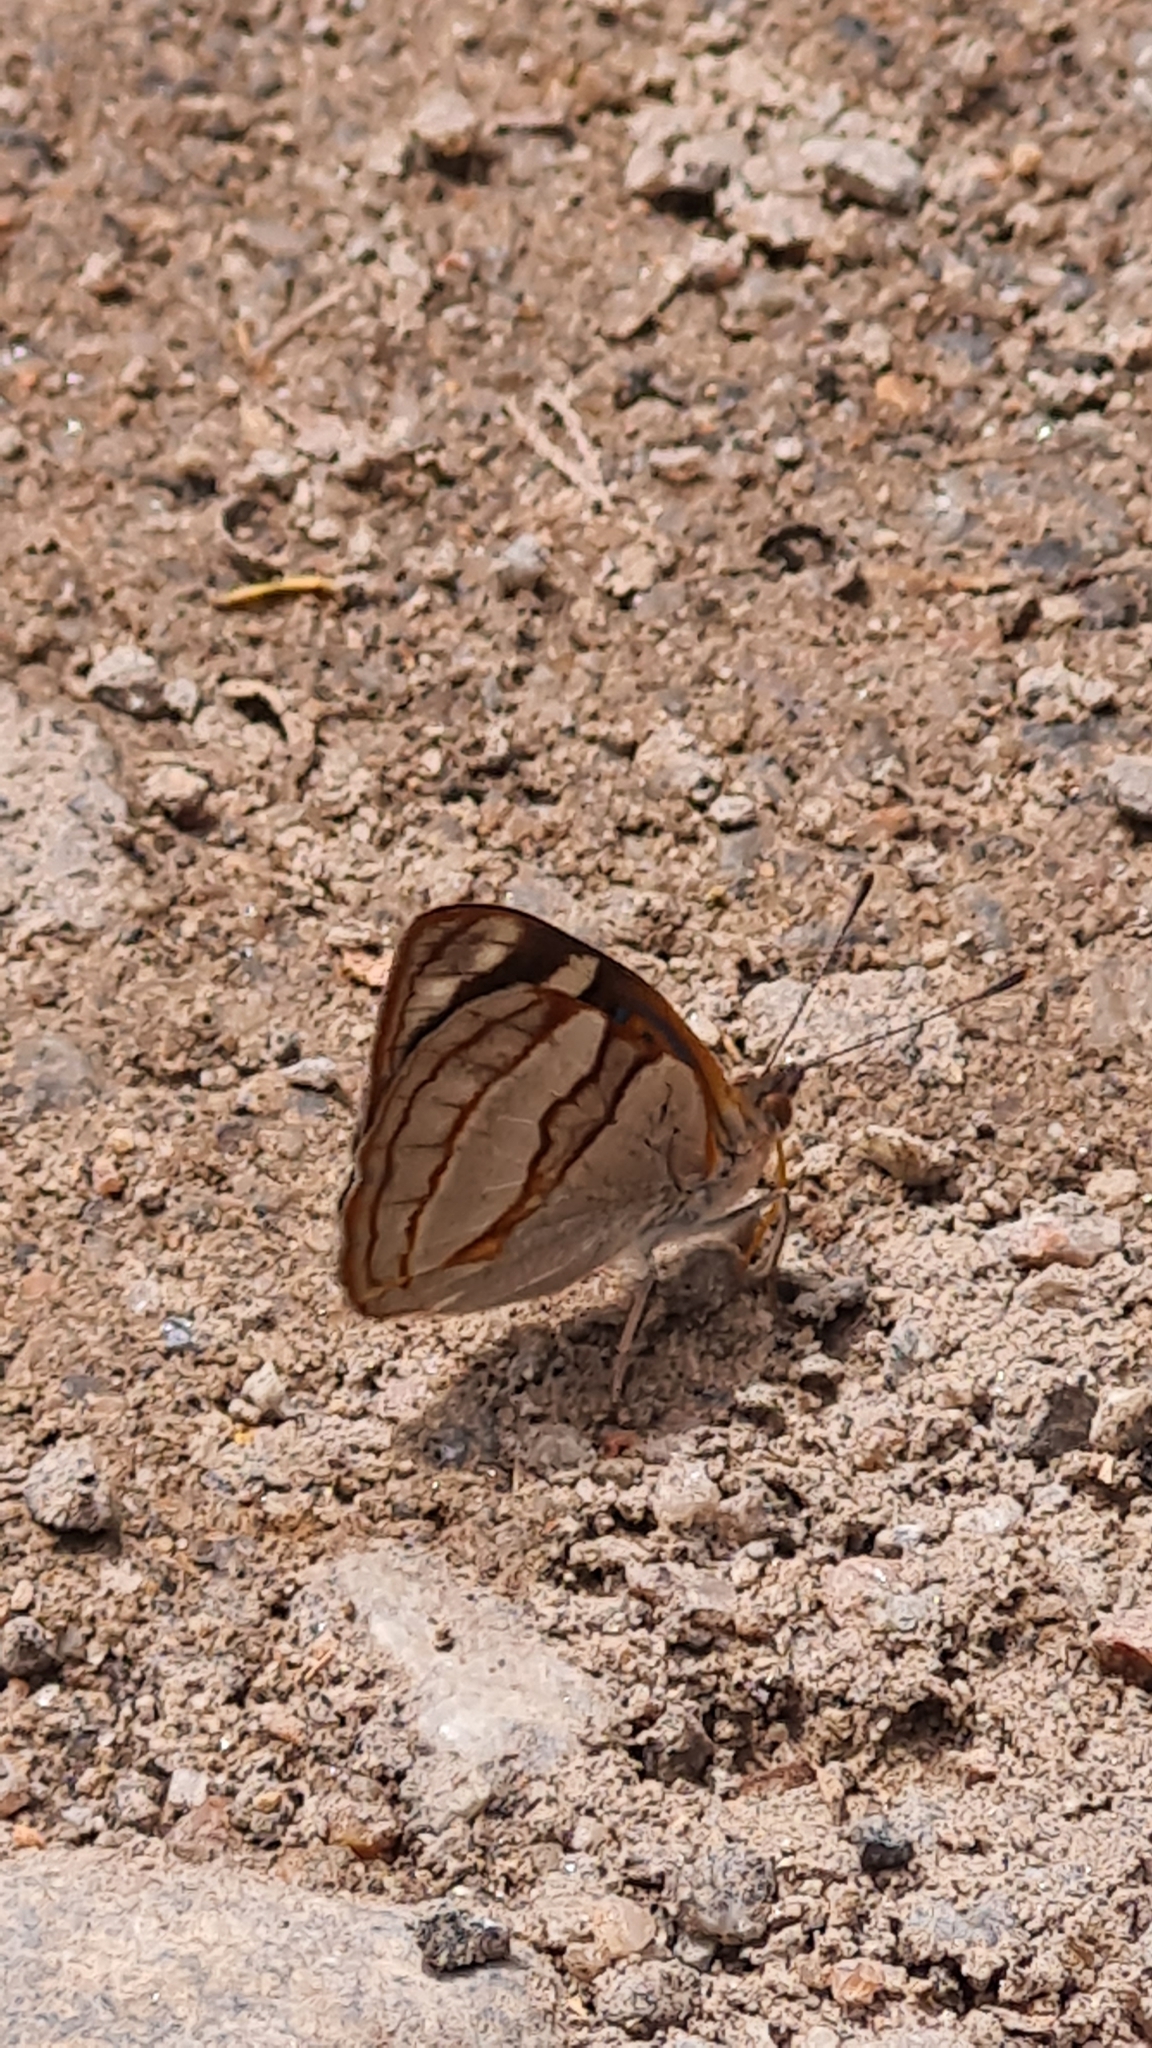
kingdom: Animalia
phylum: Arthropoda
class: Insecta
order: Lepidoptera
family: Nymphalidae
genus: Dynamine
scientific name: Dynamine tithia
